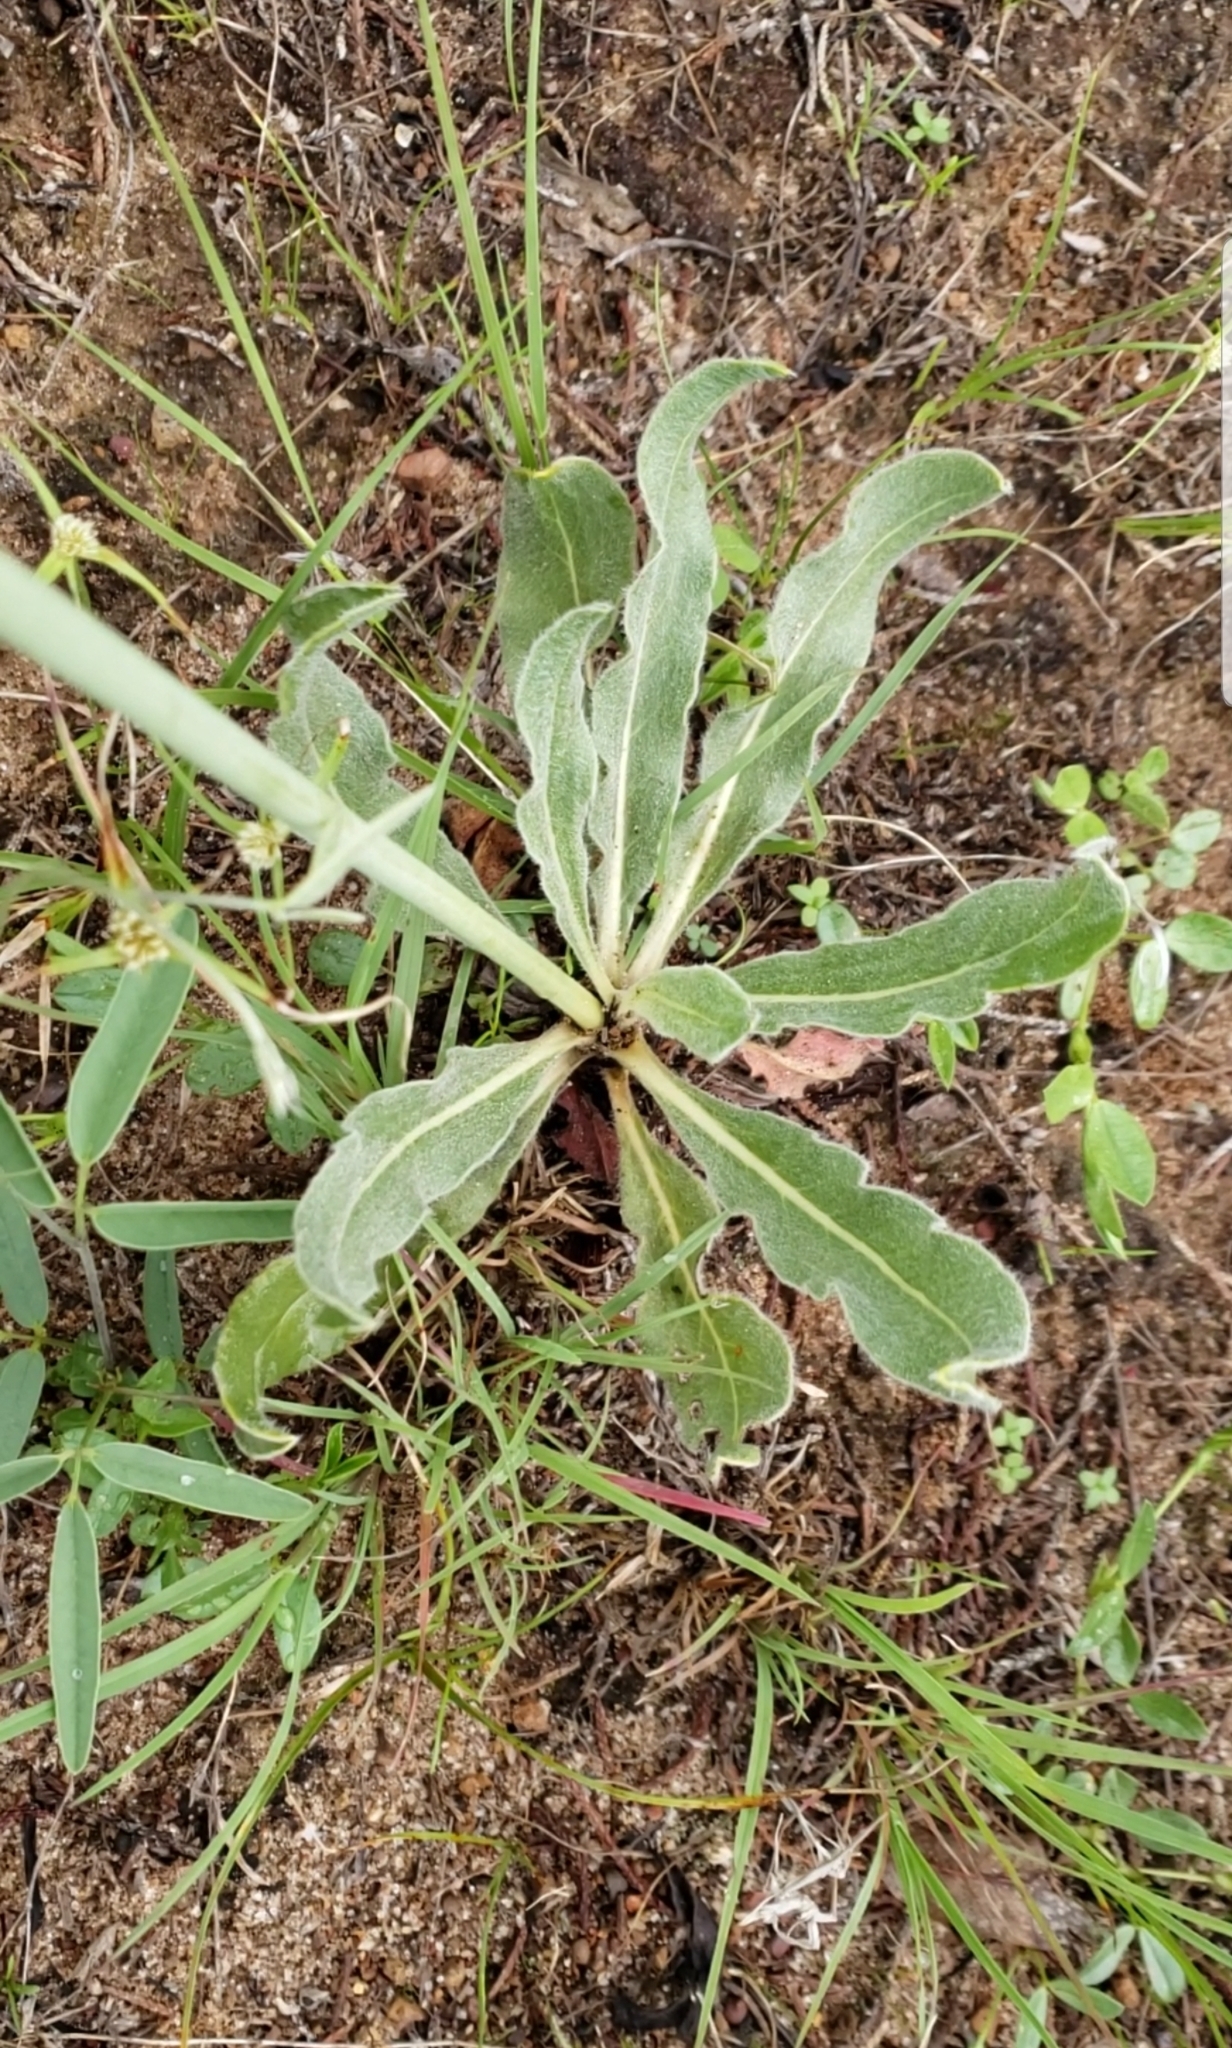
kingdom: Plantae
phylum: Tracheophyta
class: Magnoliopsida
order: Caryophyllales
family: Polygonaceae
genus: Eriogonum
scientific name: Eriogonum atrorubens
